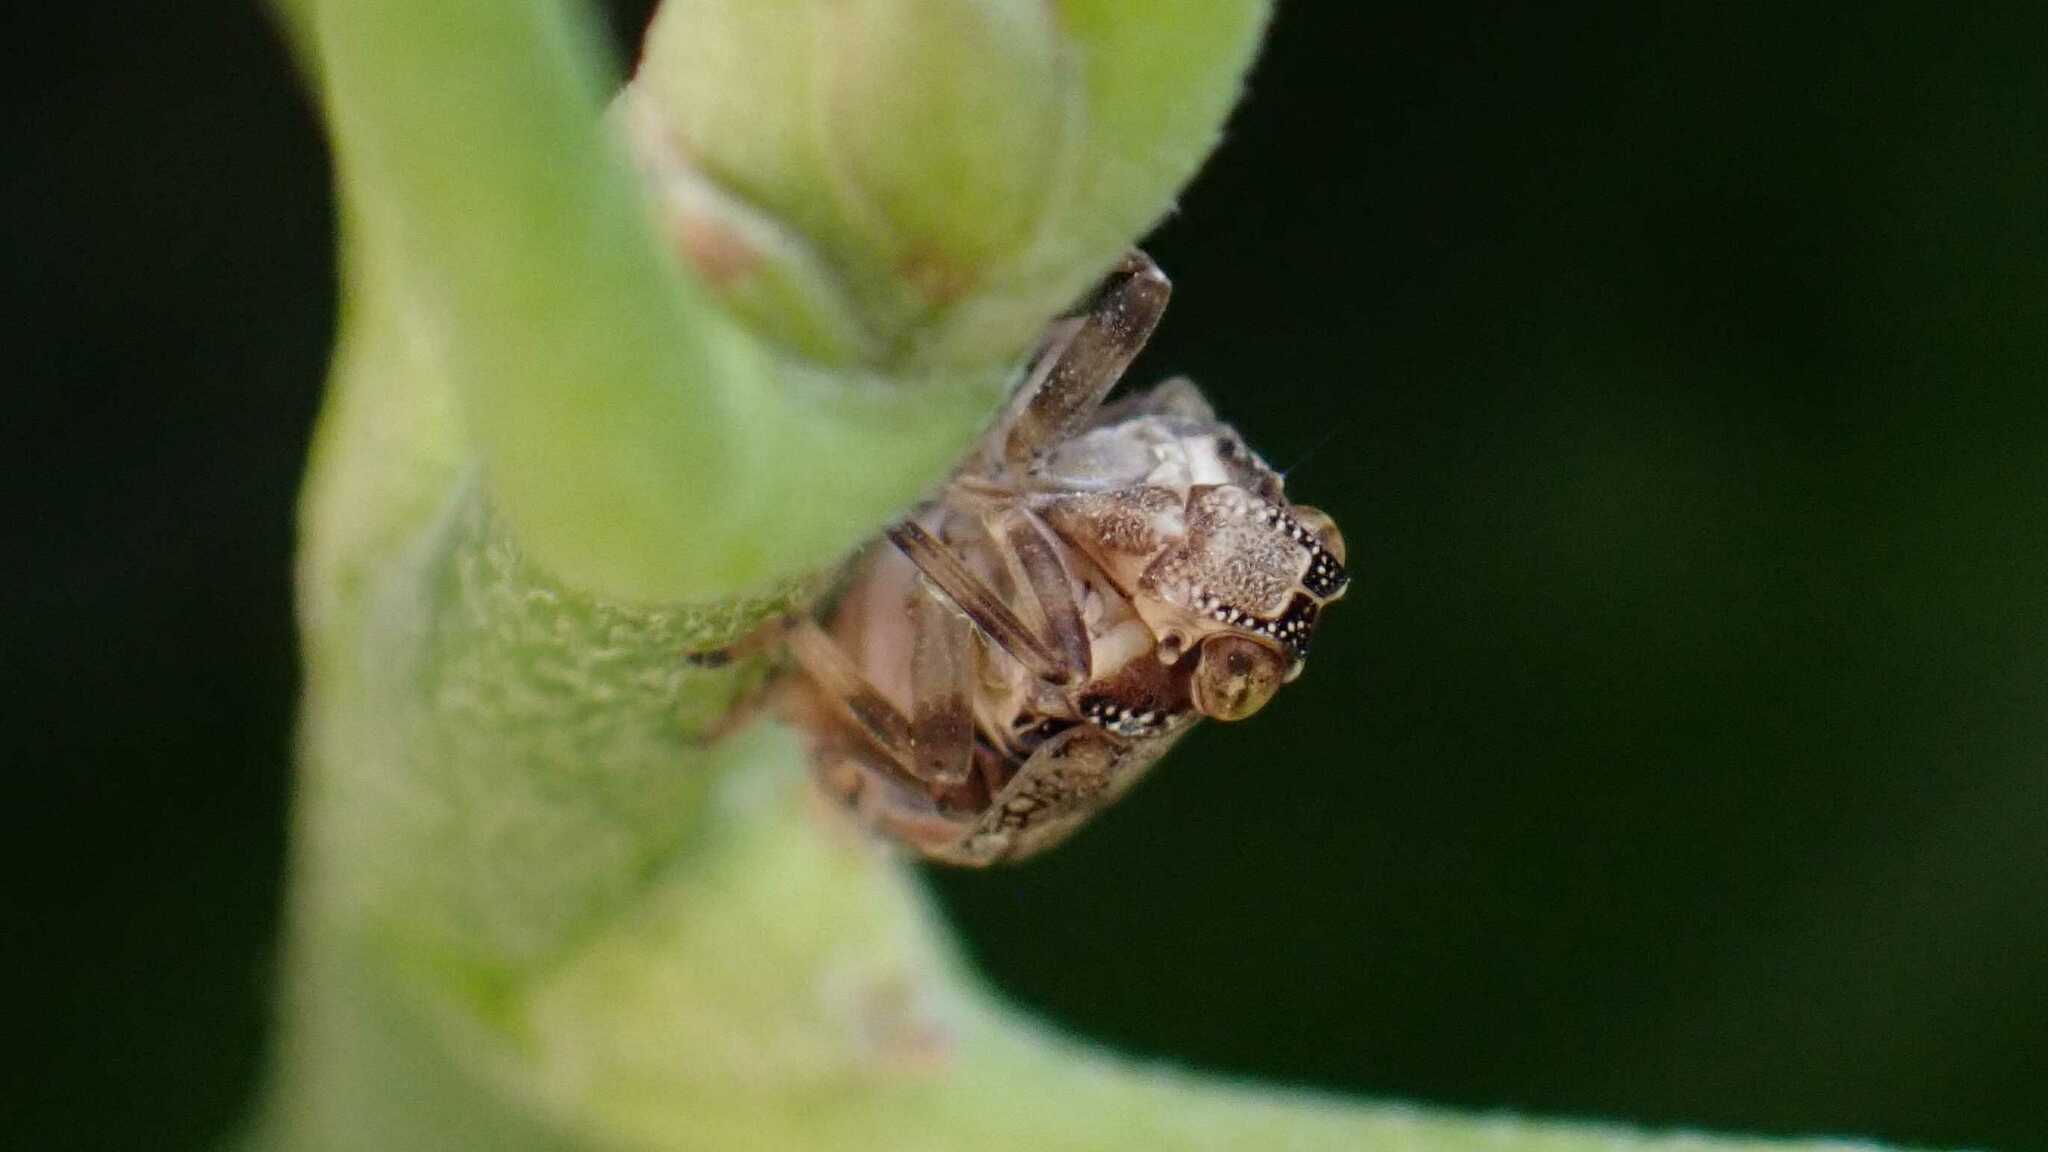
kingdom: Animalia
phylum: Arthropoda
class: Insecta
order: Hemiptera
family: Issidae
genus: Issus
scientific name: Issus coleoptratus
